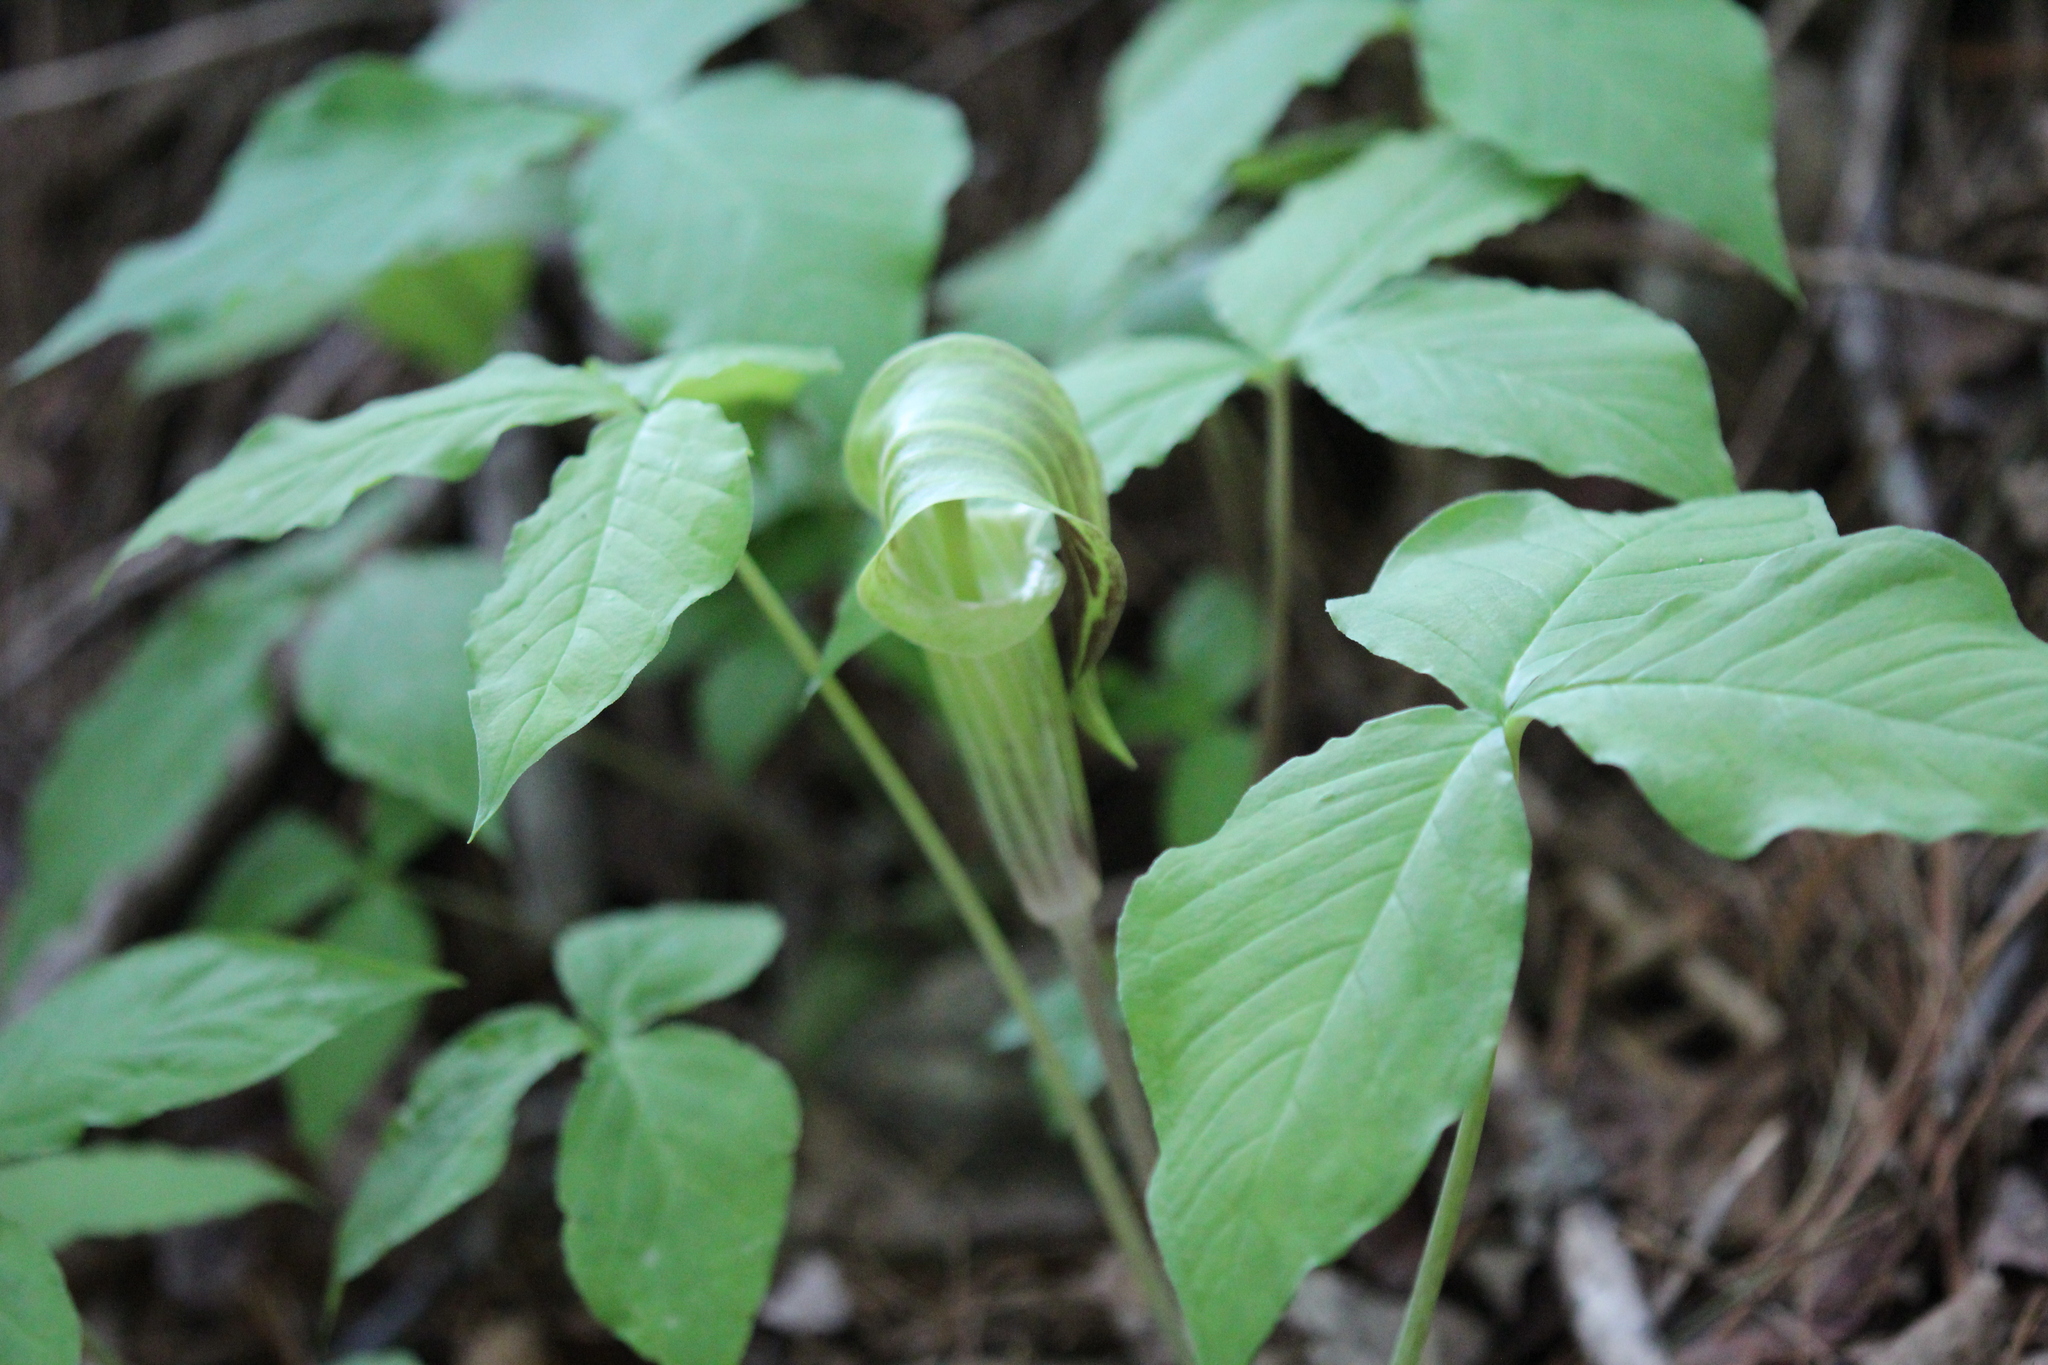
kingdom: Plantae
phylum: Tracheophyta
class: Liliopsida
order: Alismatales
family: Araceae
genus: Arisaema
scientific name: Arisaema triphyllum
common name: Jack-in-the-pulpit
